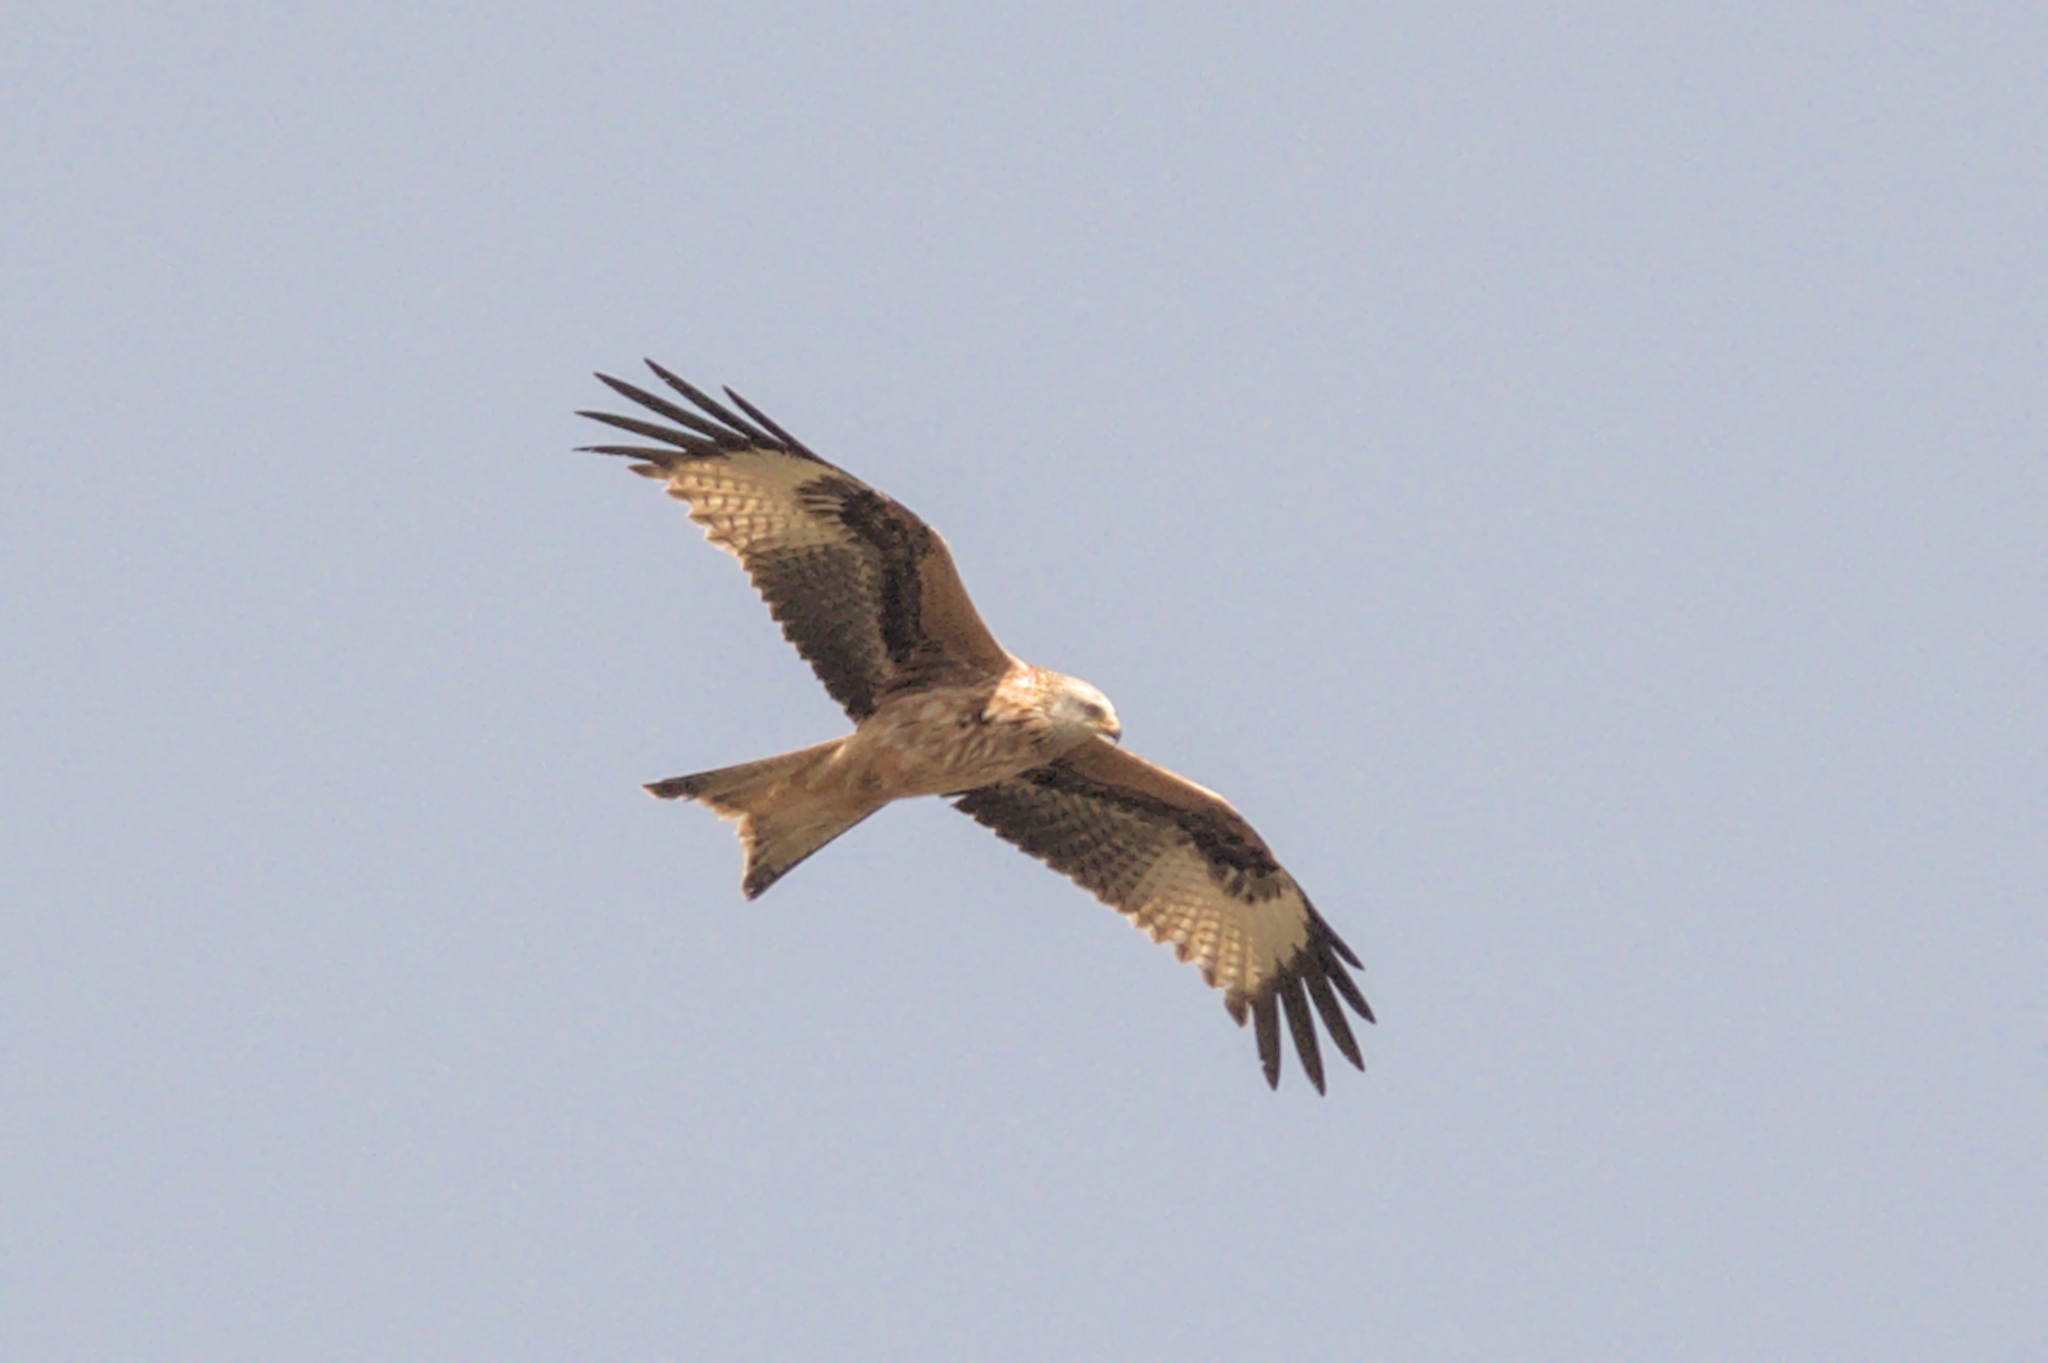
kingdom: Animalia
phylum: Chordata
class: Aves
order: Accipitriformes
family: Accipitridae
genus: Milvus
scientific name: Milvus milvus
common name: Red kite
